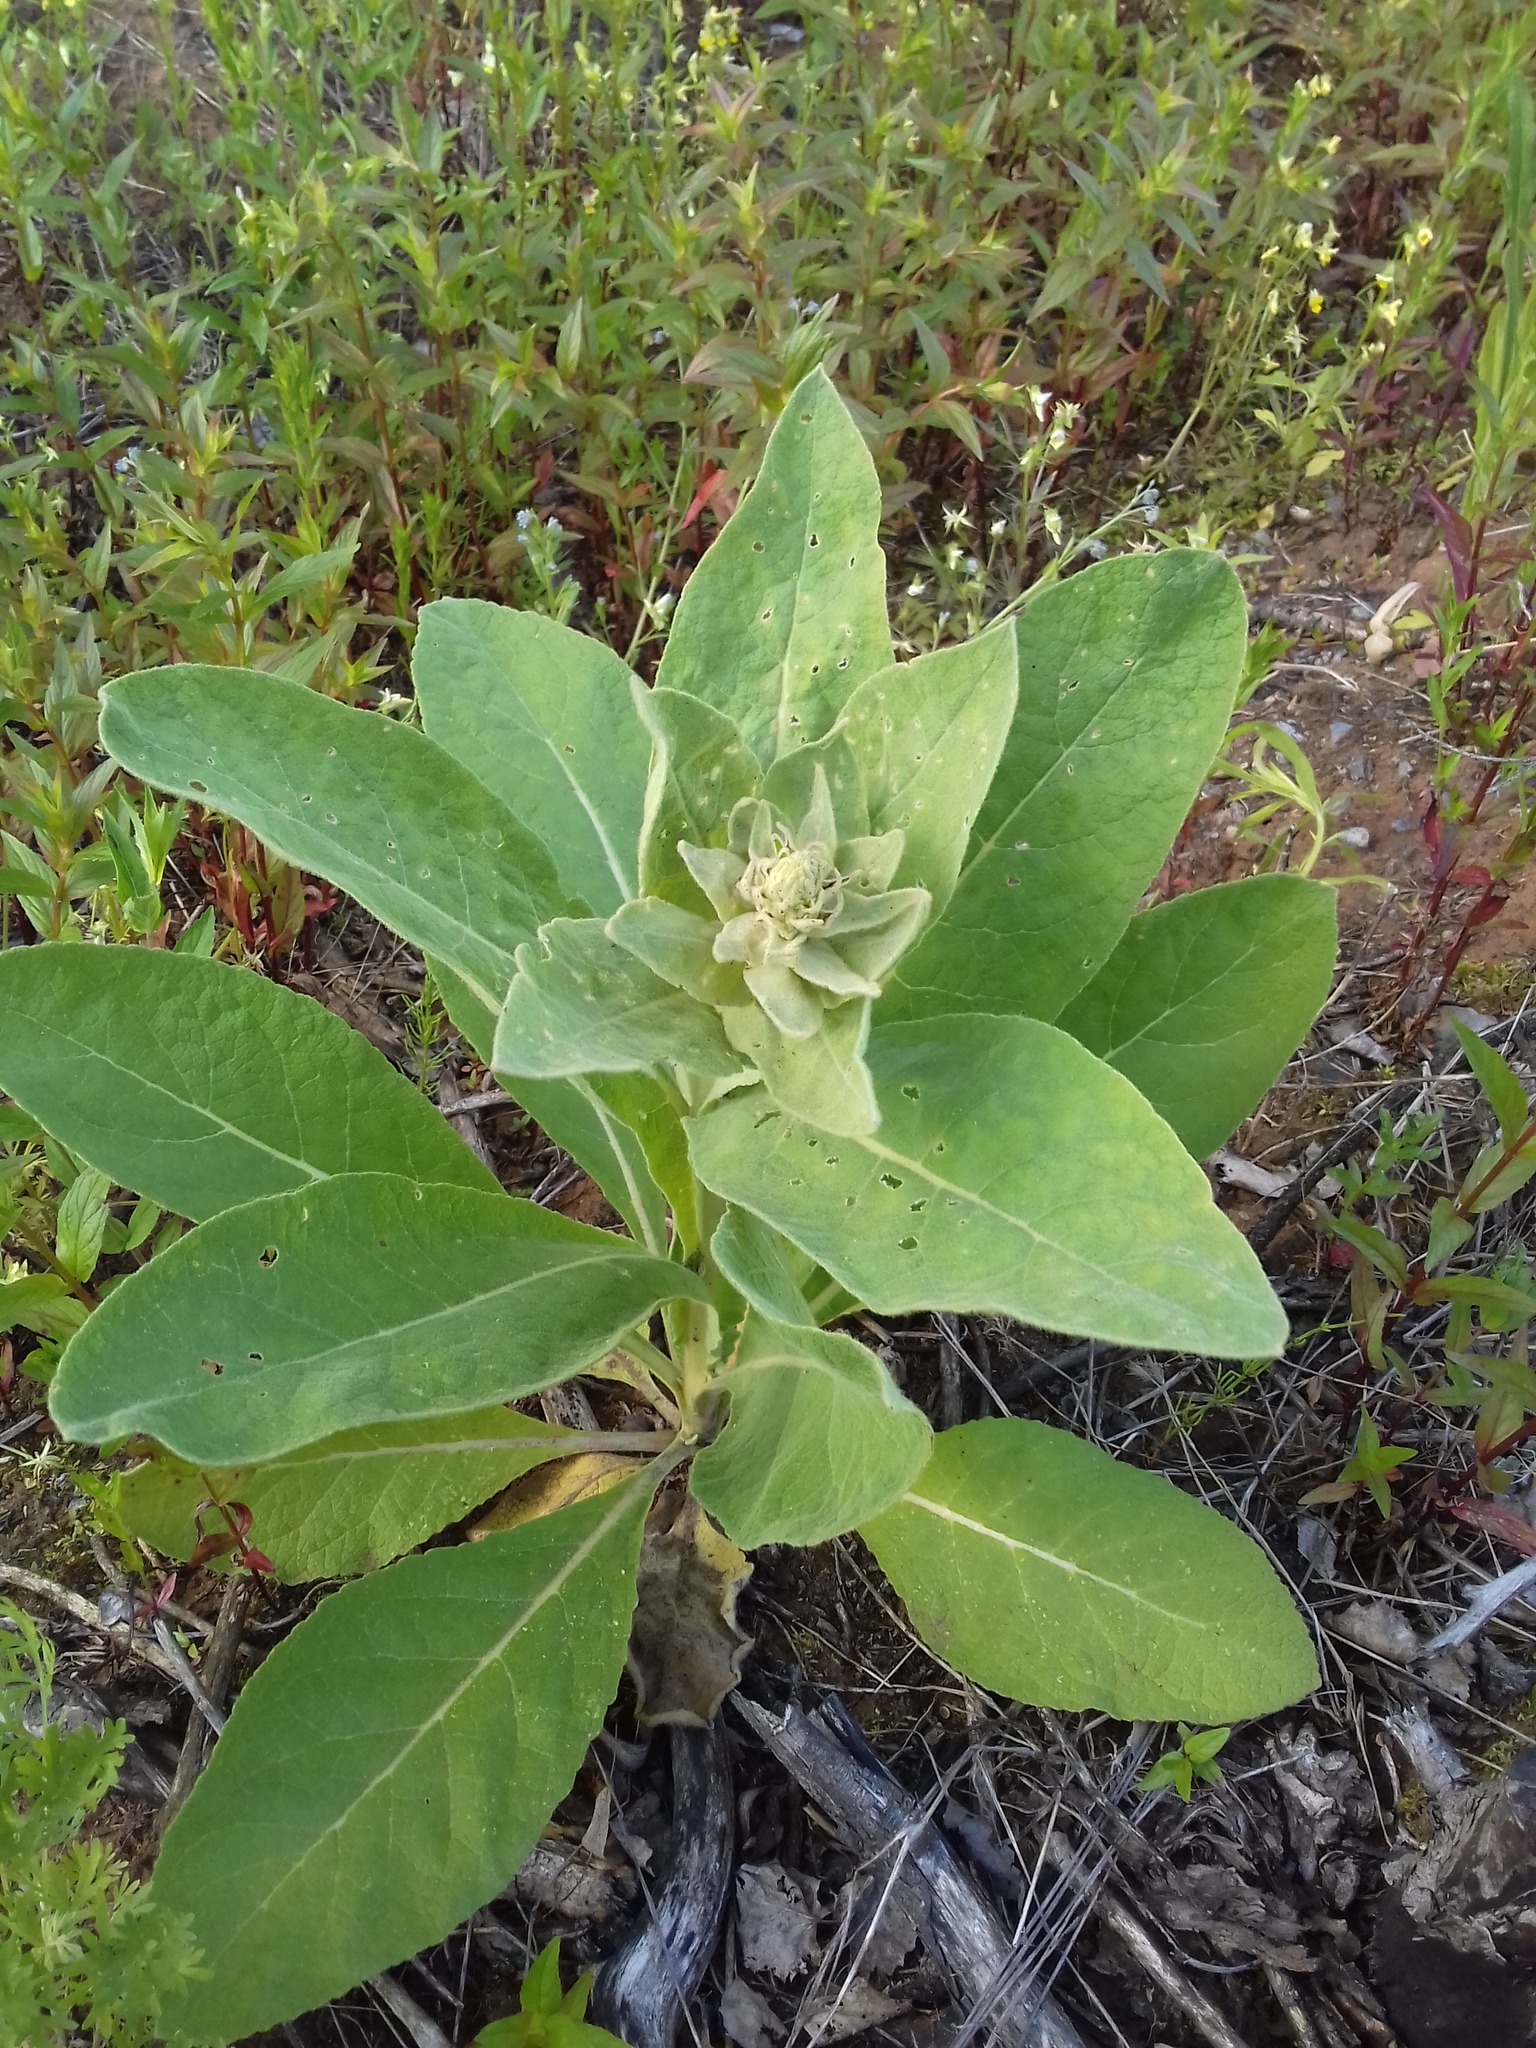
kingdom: Plantae
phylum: Tracheophyta
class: Magnoliopsida
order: Lamiales
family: Scrophulariaceae
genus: Verbascum
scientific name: Verbascum thapsus
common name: Common mullein
